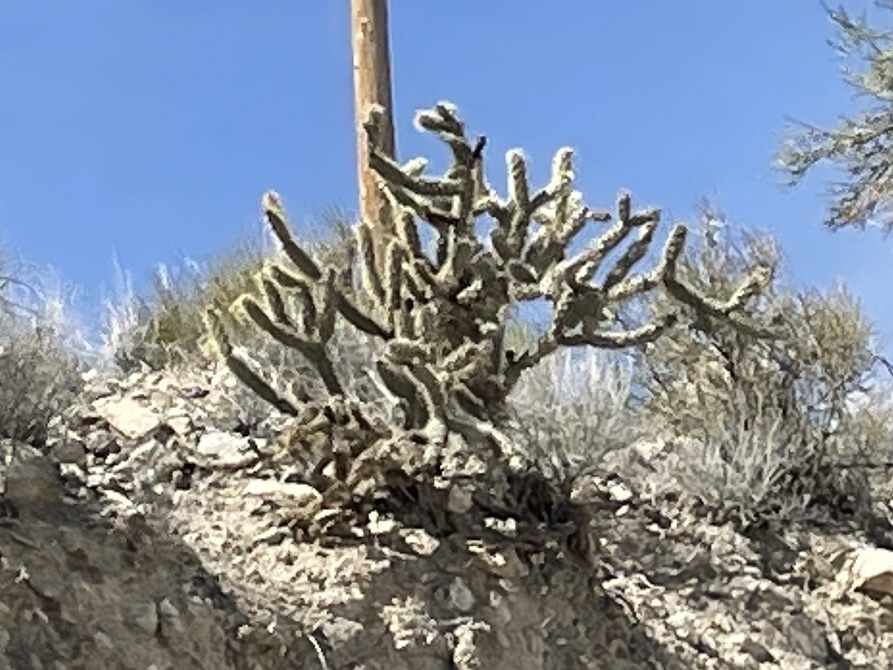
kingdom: Plantae
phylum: Tracheophyta
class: Magnoliopsida
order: Caryophyllales
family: Cactaceae
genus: Cylindropuntia
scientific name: Cylindropuntia acanthocarpa
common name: Buckhorn cholla
